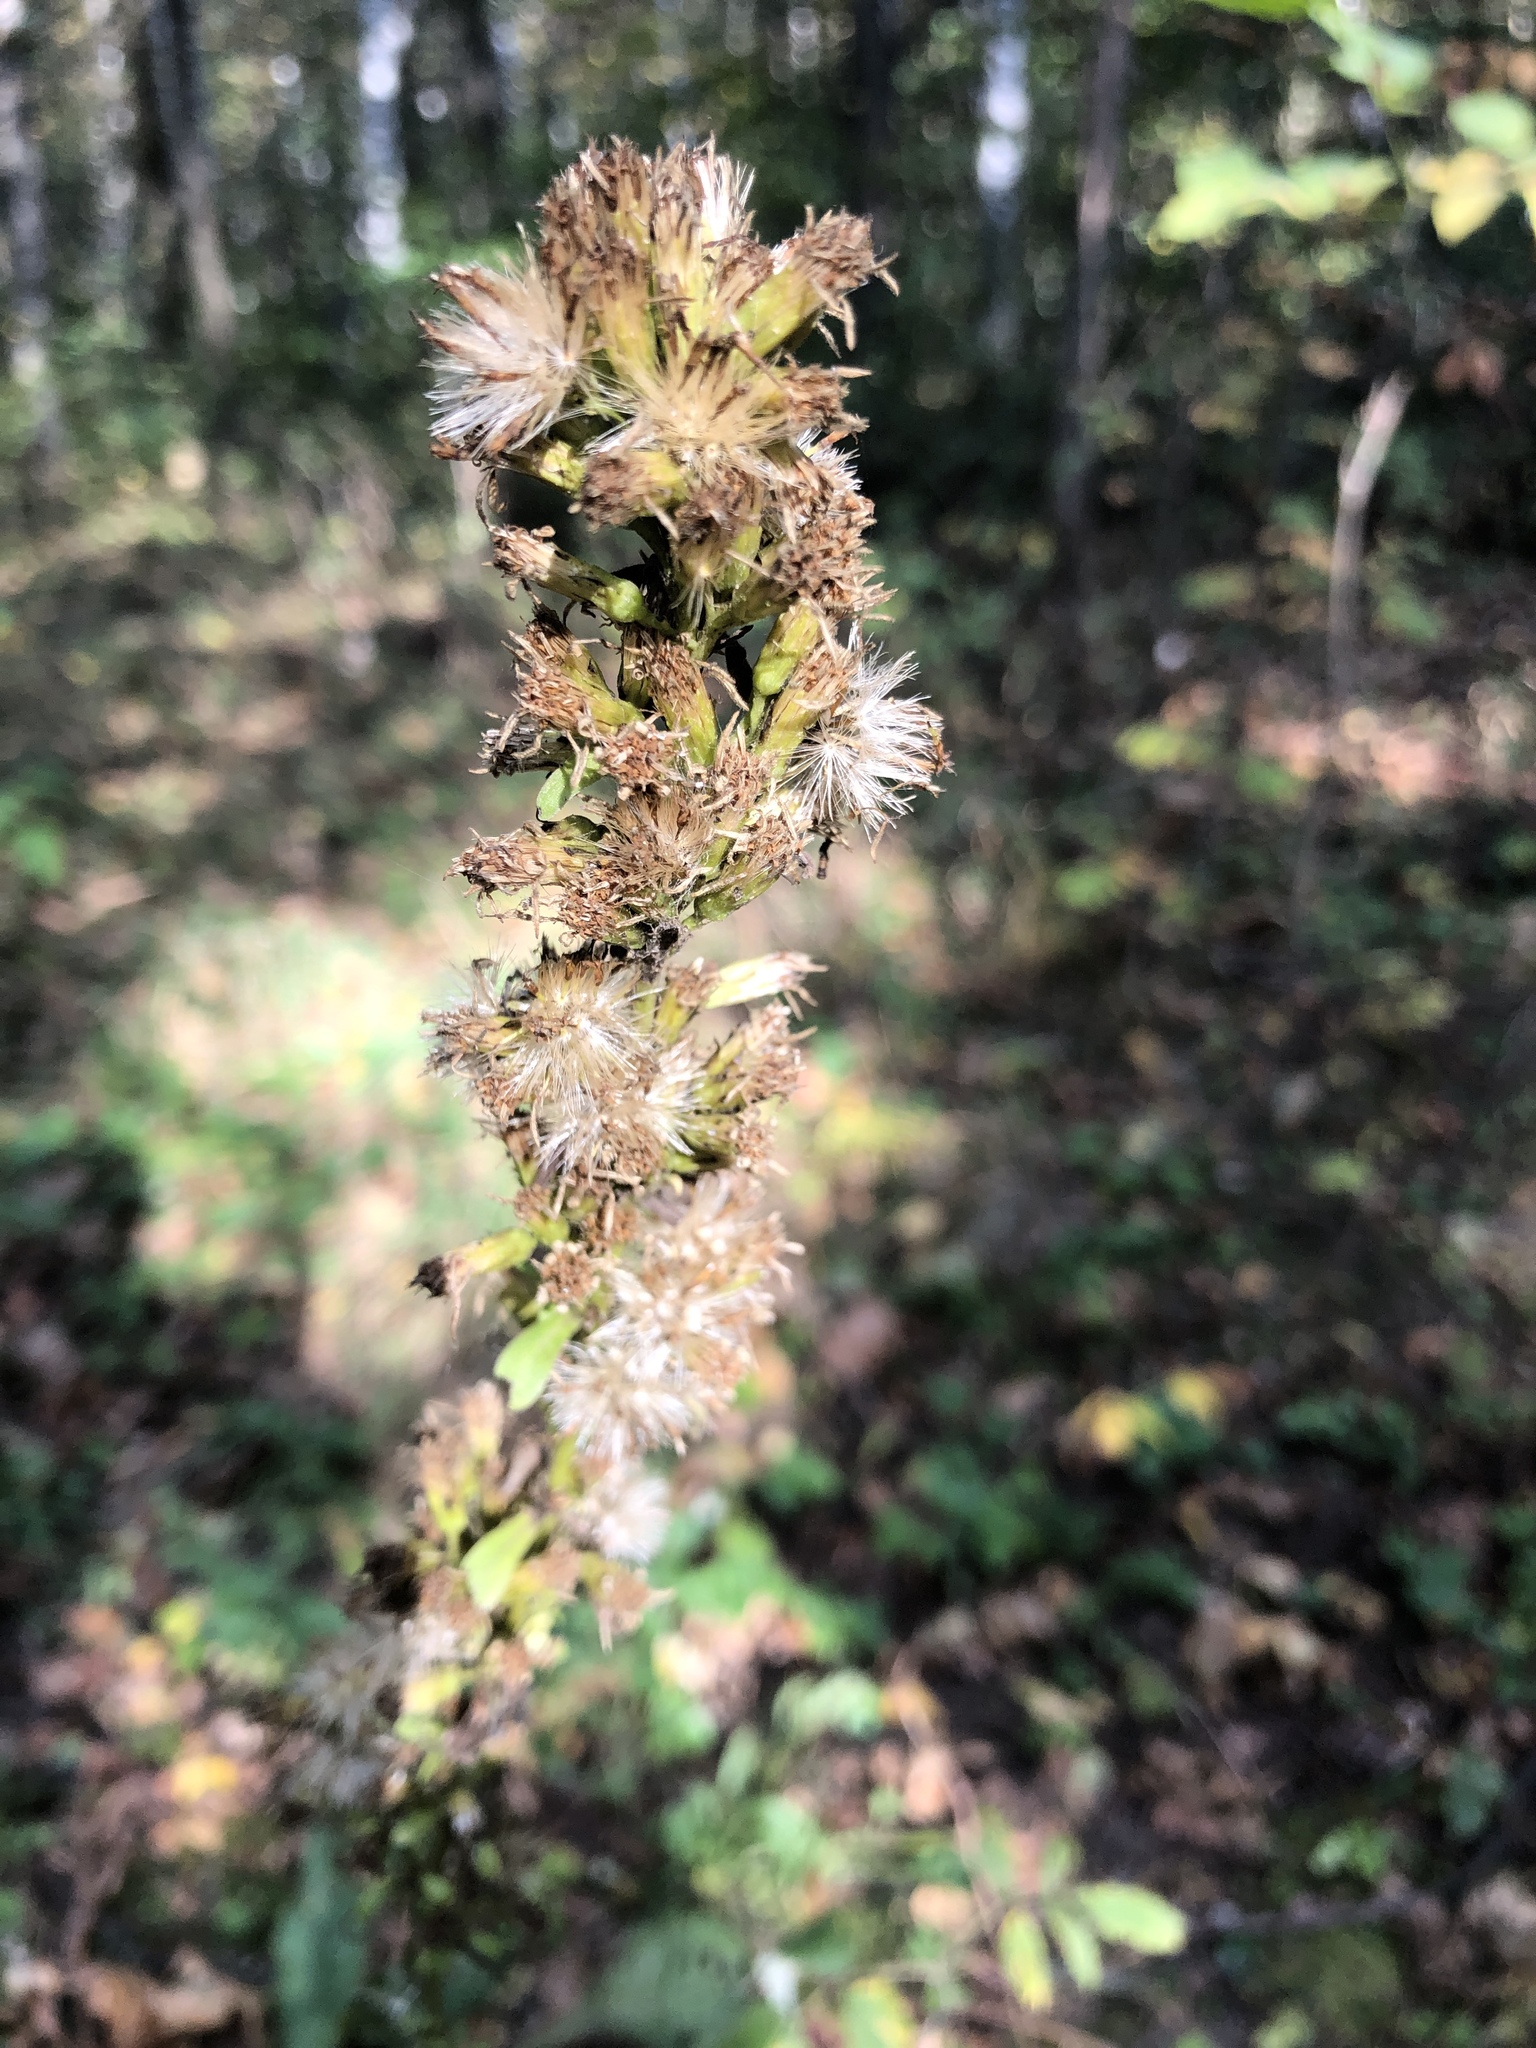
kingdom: Plantae
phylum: Tracheophyta
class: Magnoliopsida
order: Asterales
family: Asteraceae
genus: Solidago
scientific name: Solidago virgaurea
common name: Goldenrod
